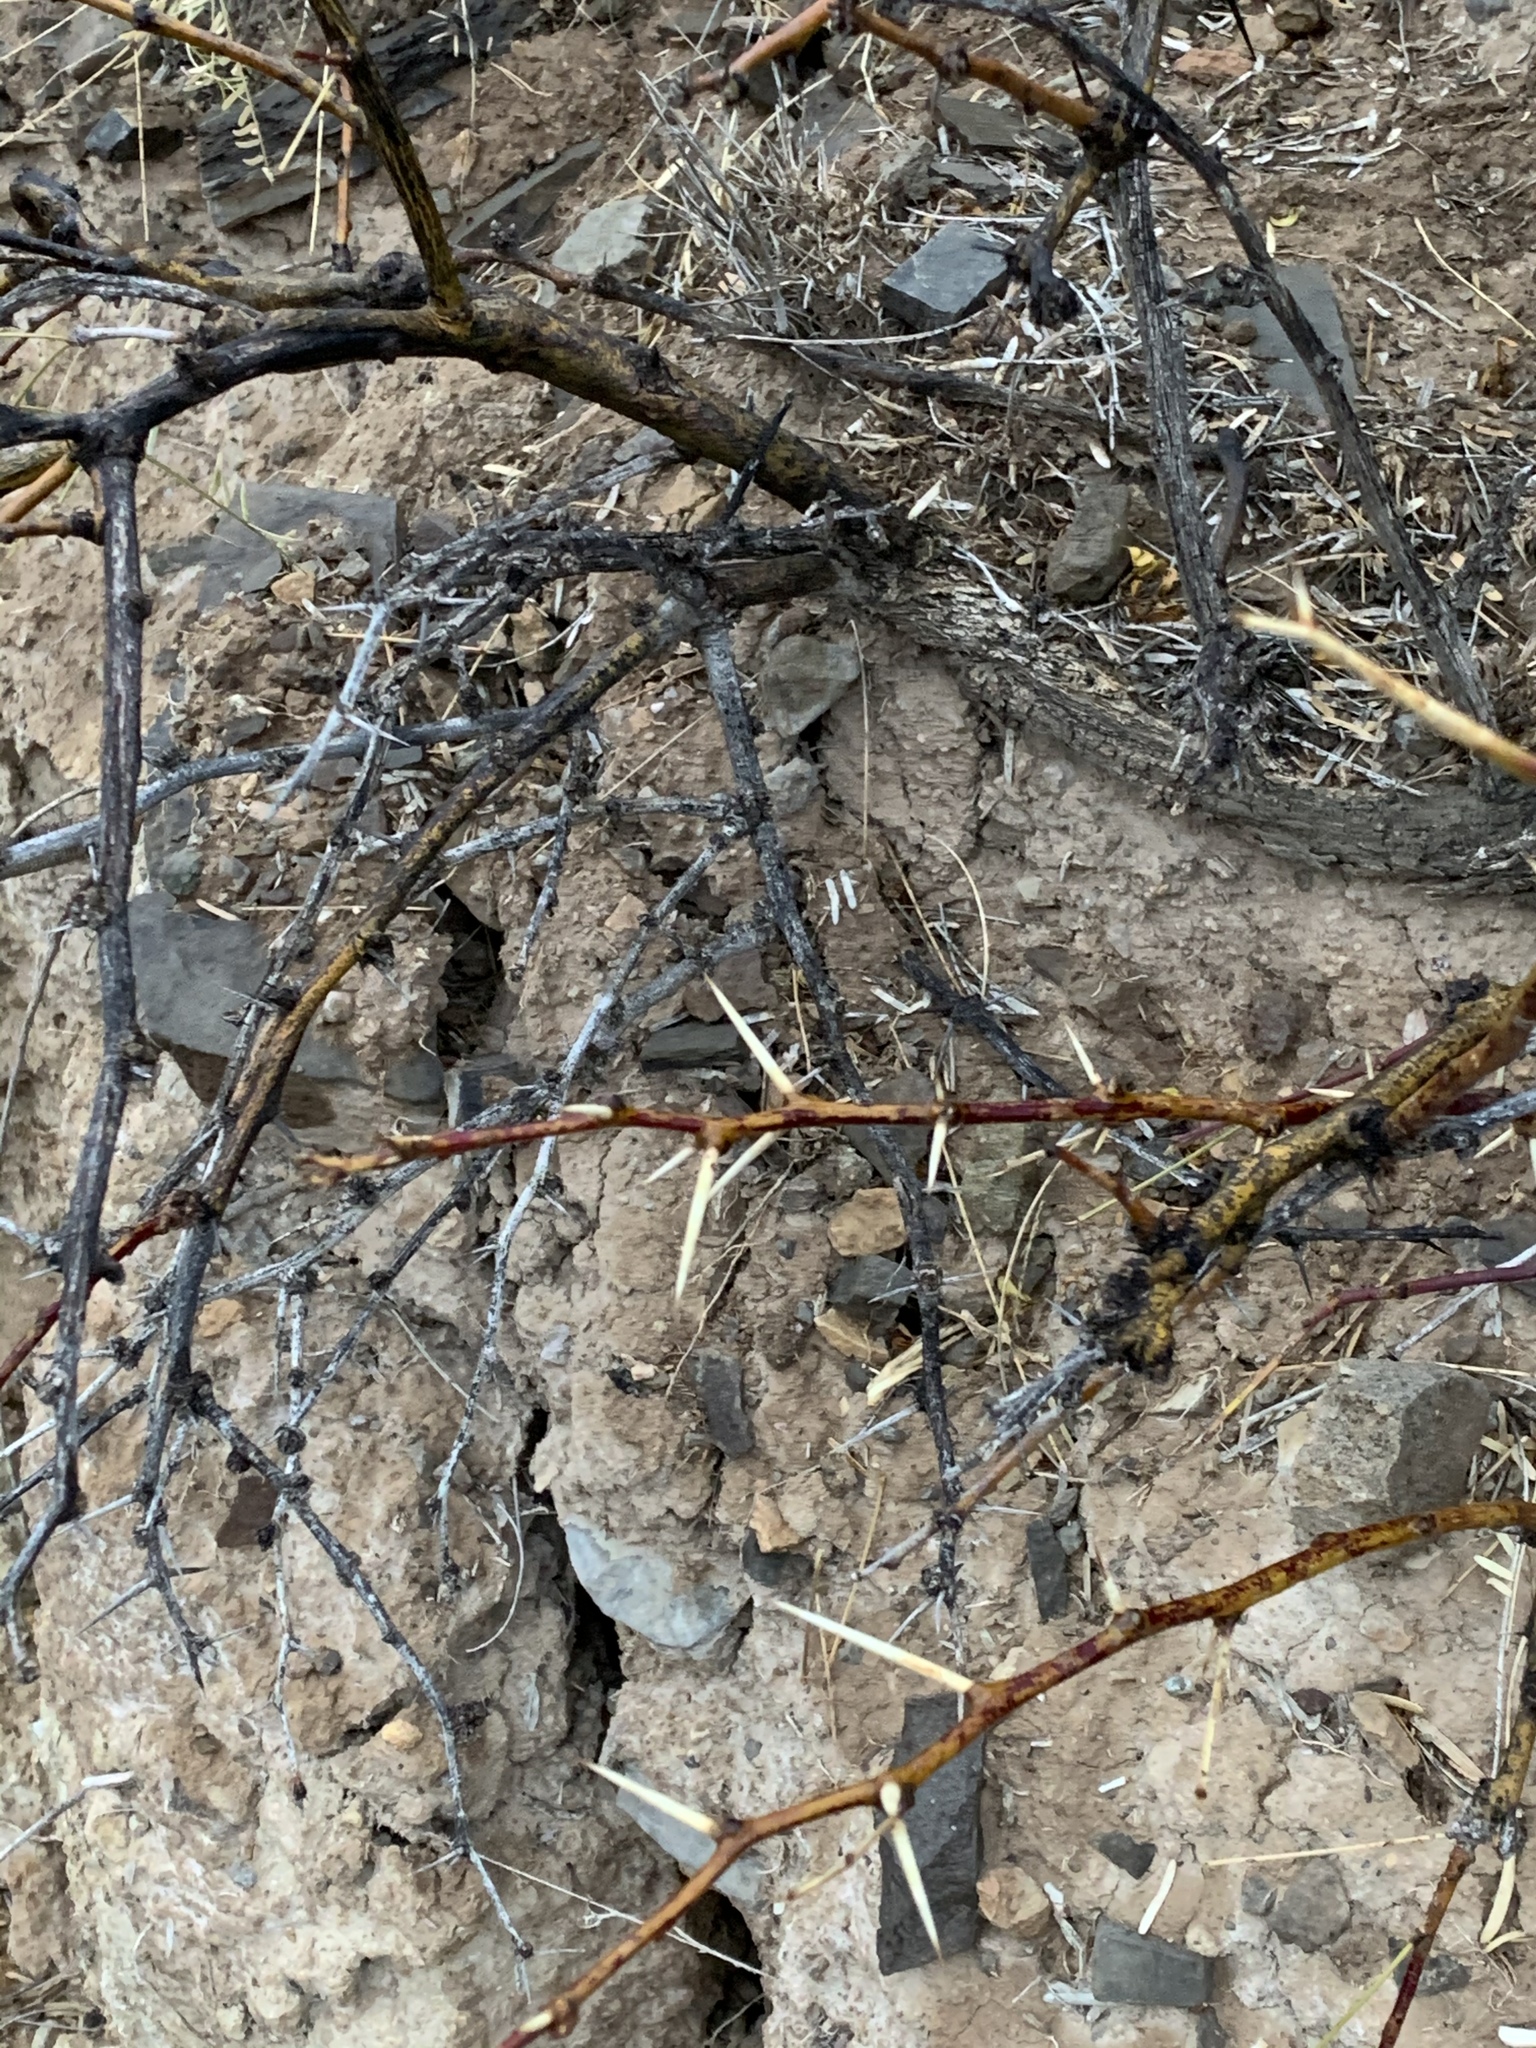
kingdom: Plantae
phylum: Tracheophyta
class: Magnoliopsida
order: Fabales
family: Fabaceae
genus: Prosopis
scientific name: Prosopis glandulosa
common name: Honey mesquite
